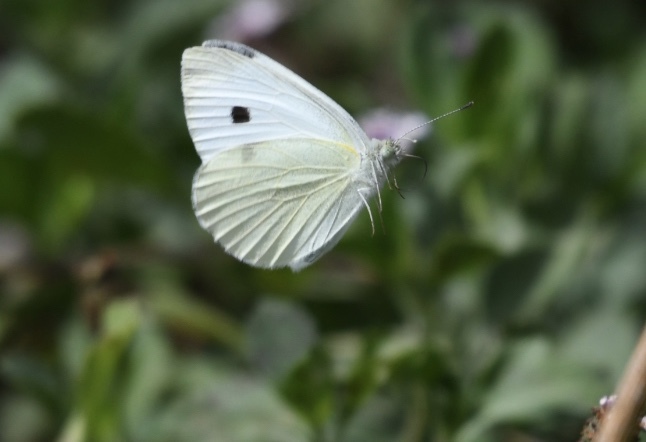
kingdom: Animalia
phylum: Arthropoda
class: Insecta
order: Lepidoptera
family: Pieridae
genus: Pieris
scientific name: Pieris rapae
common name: Small white
